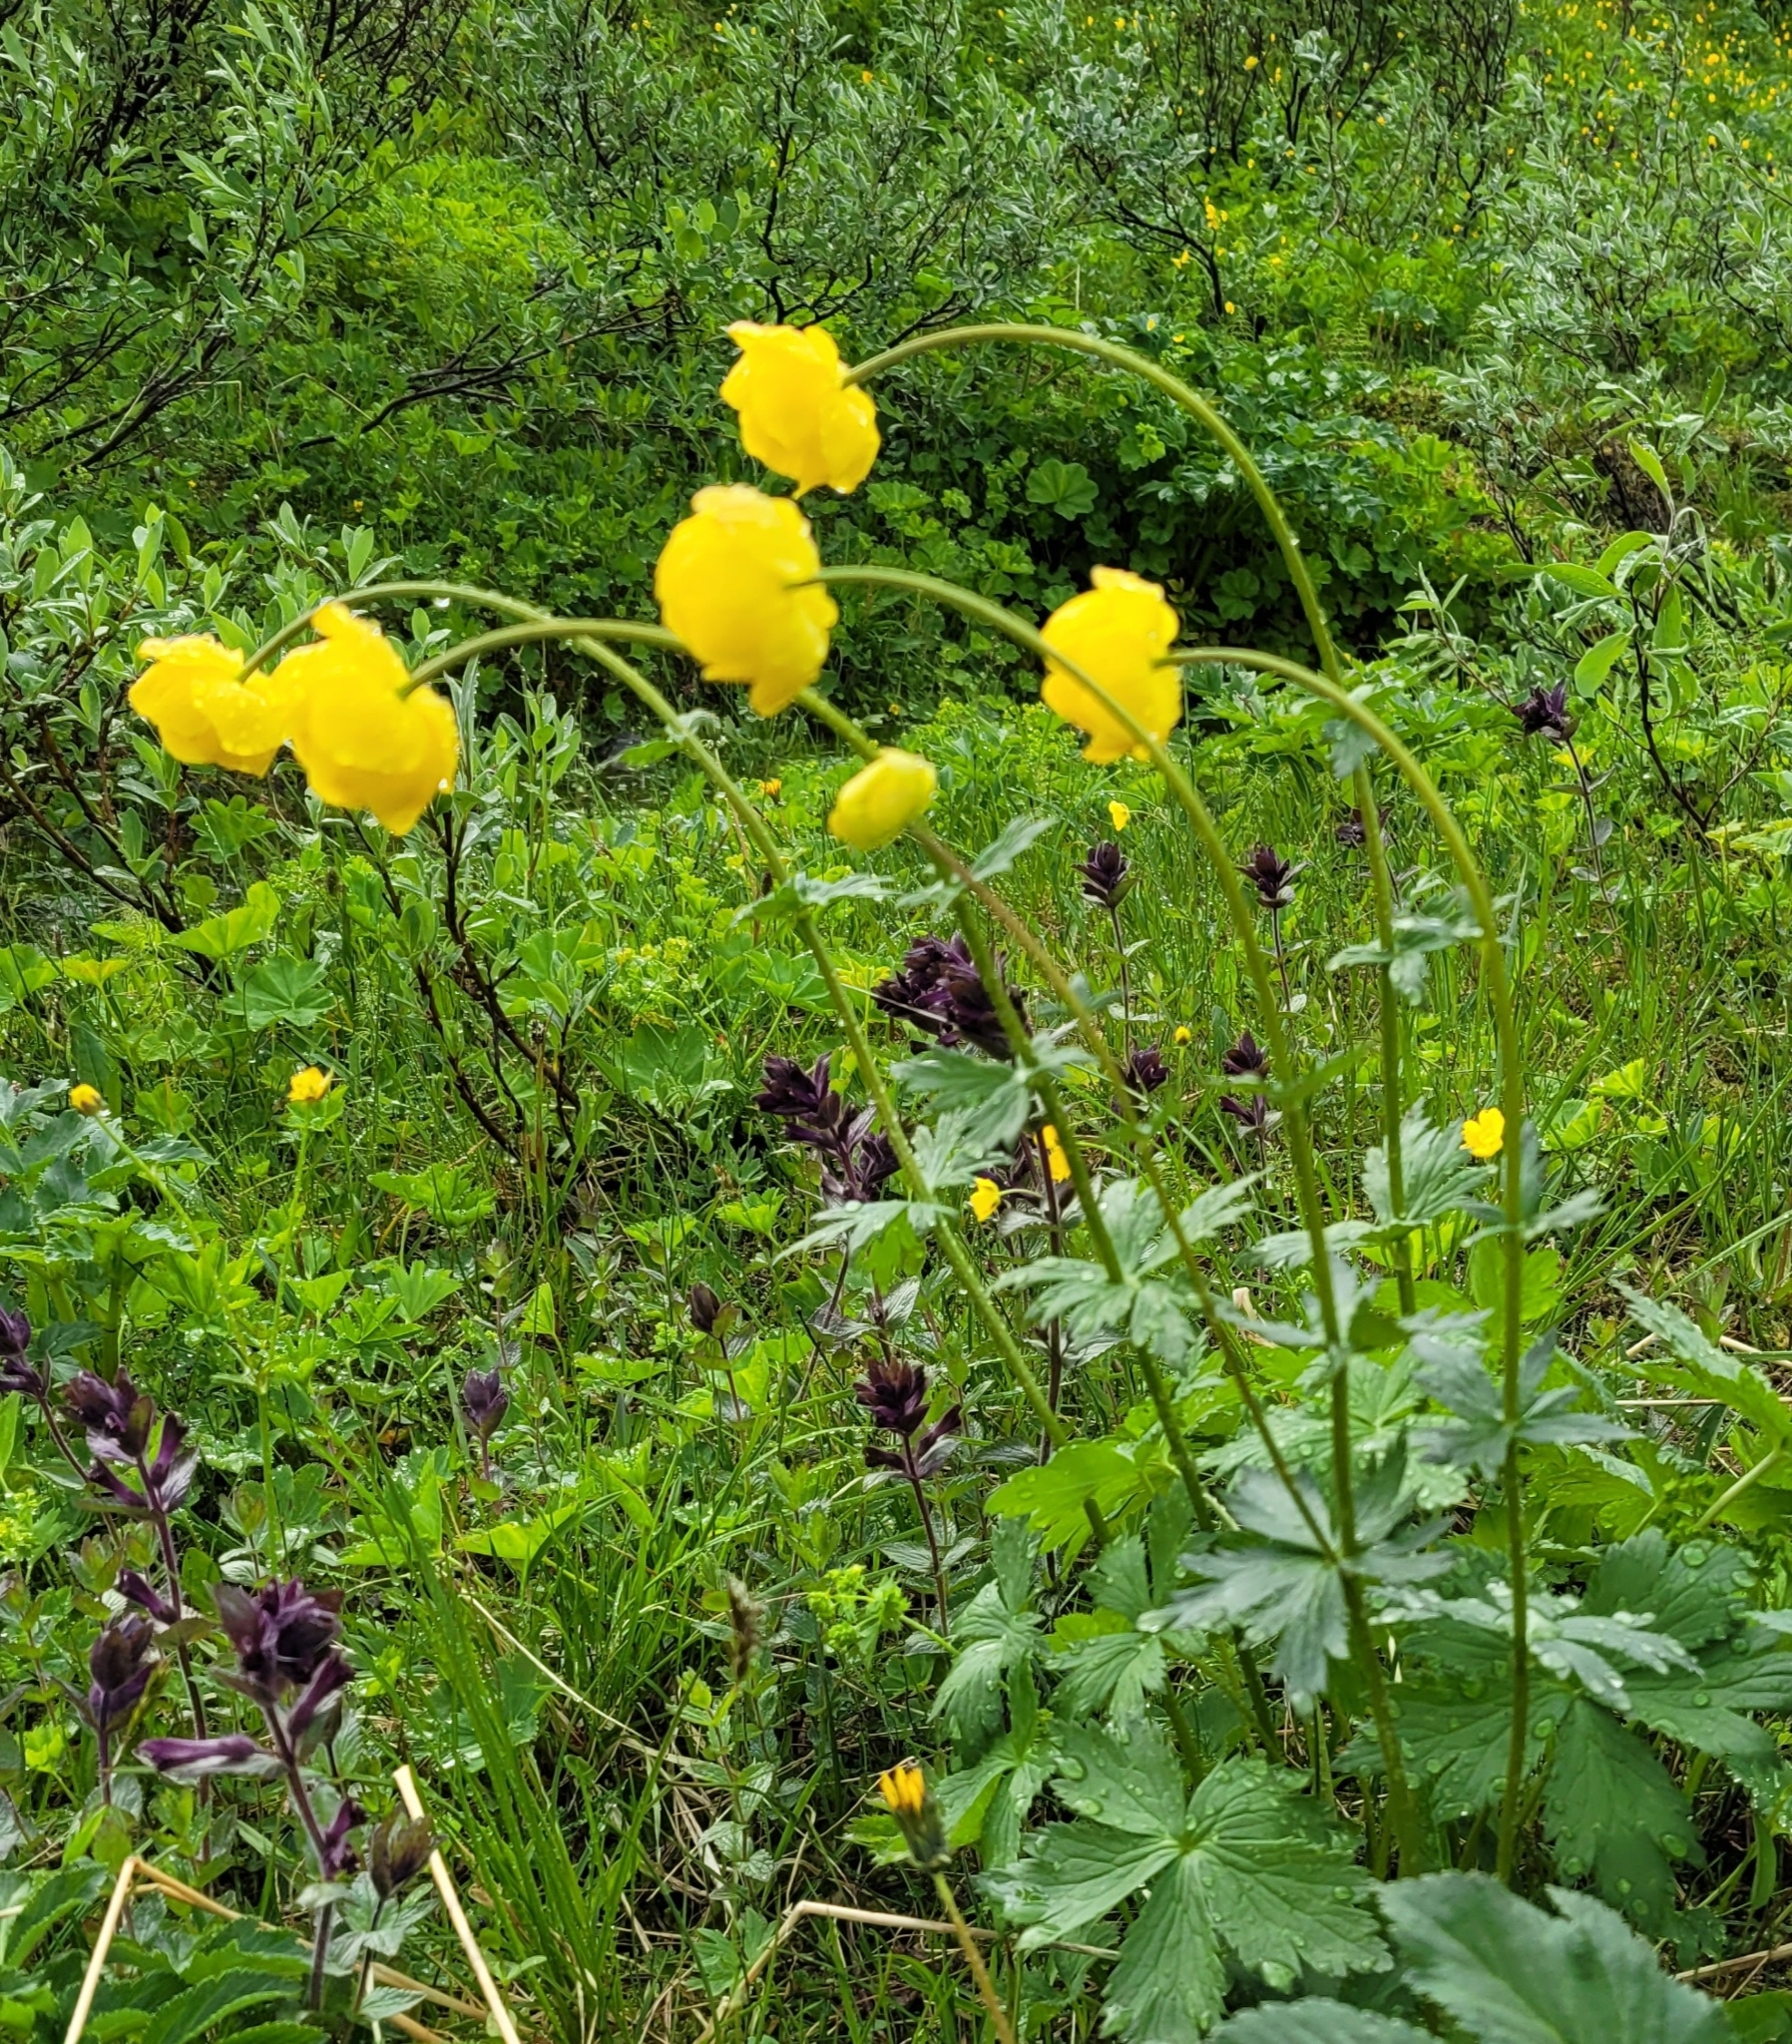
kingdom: Plantae
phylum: Tracheophyta
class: Magnoliopsida
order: Ranunculales
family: Ranunculaceae
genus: Trollius
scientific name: Trollius europaeus
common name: European globeflower
